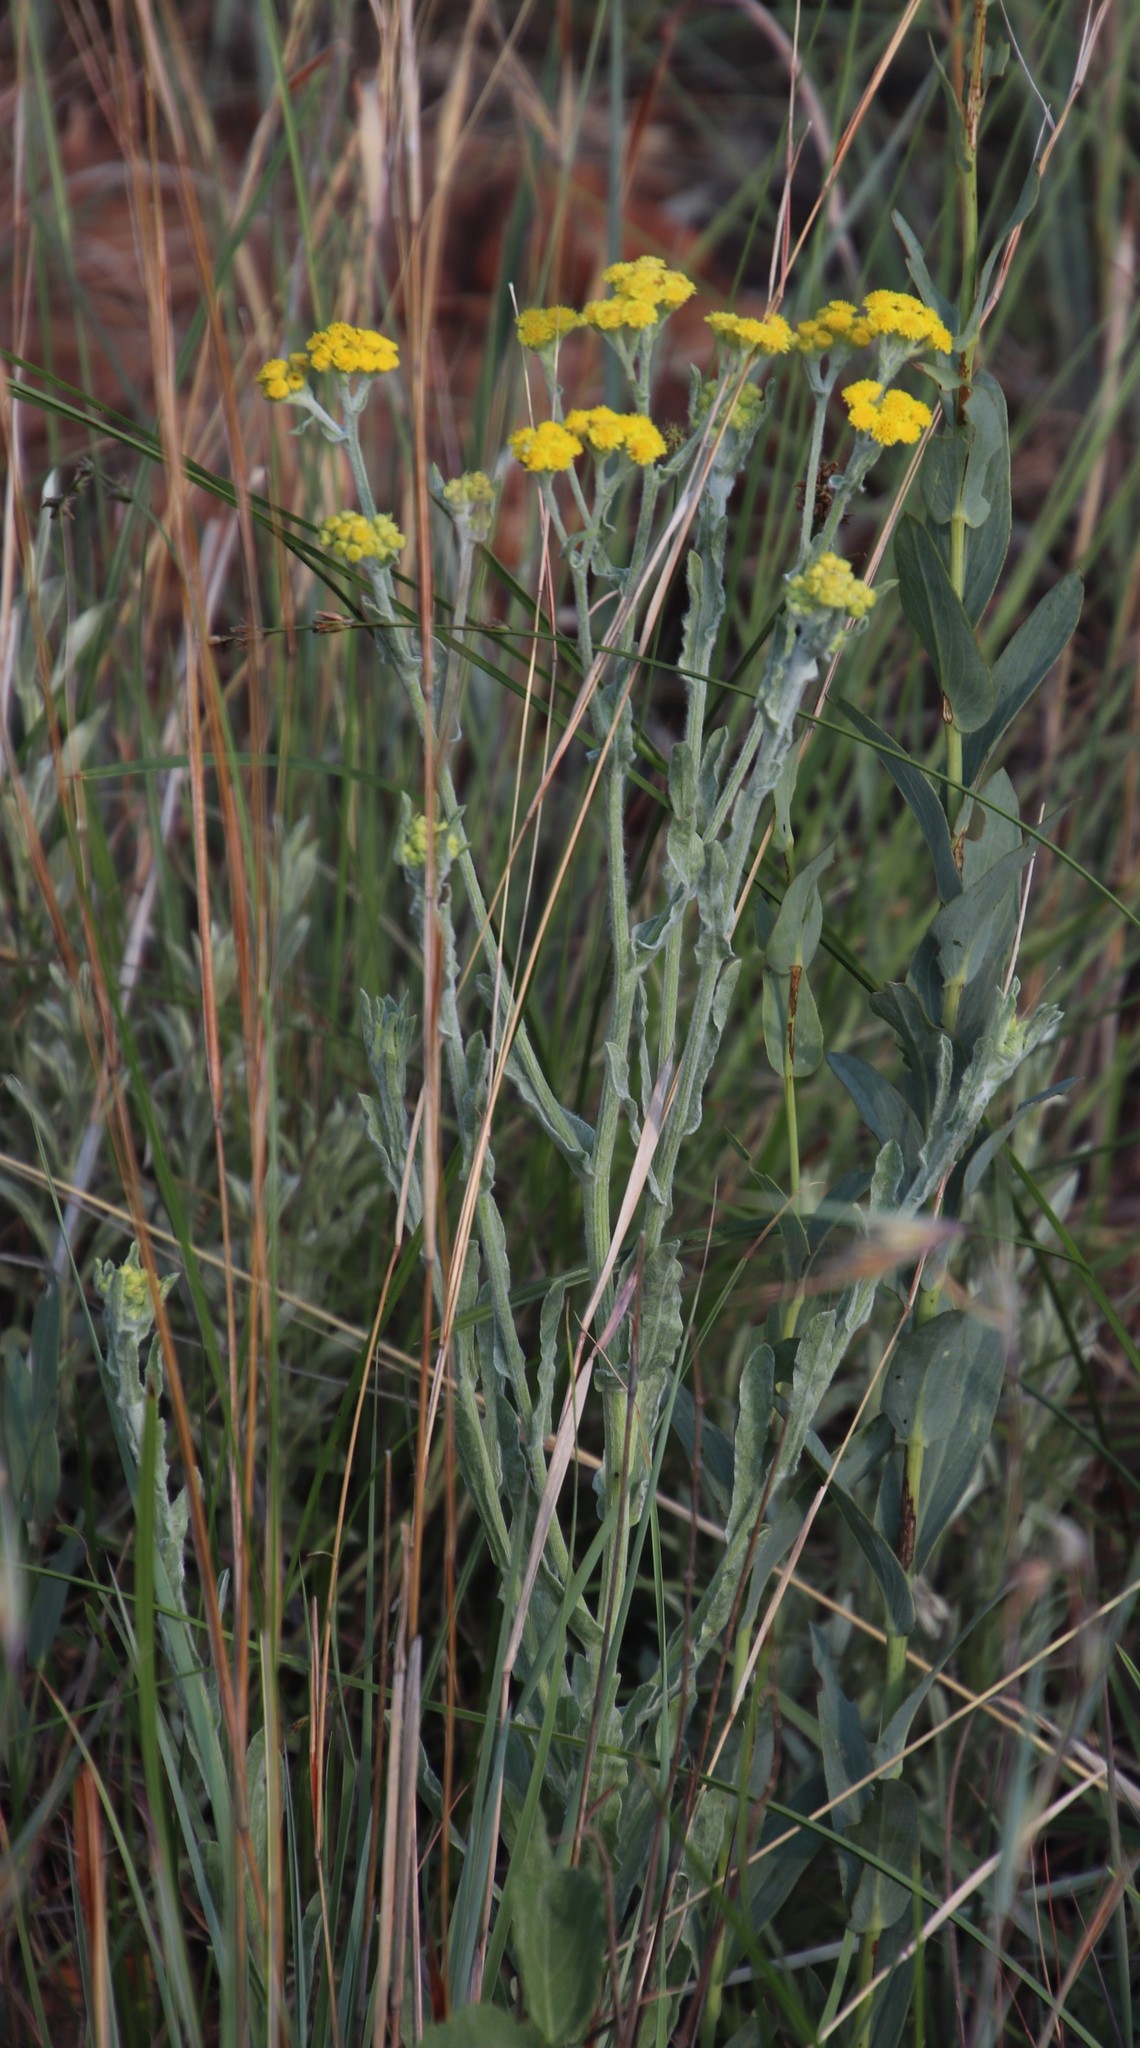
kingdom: Plantae
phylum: Tracheophyta
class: Magnoliopsida
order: Asterales
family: Asteraceae
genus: Nidorella
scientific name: Nidorella hottentotica
